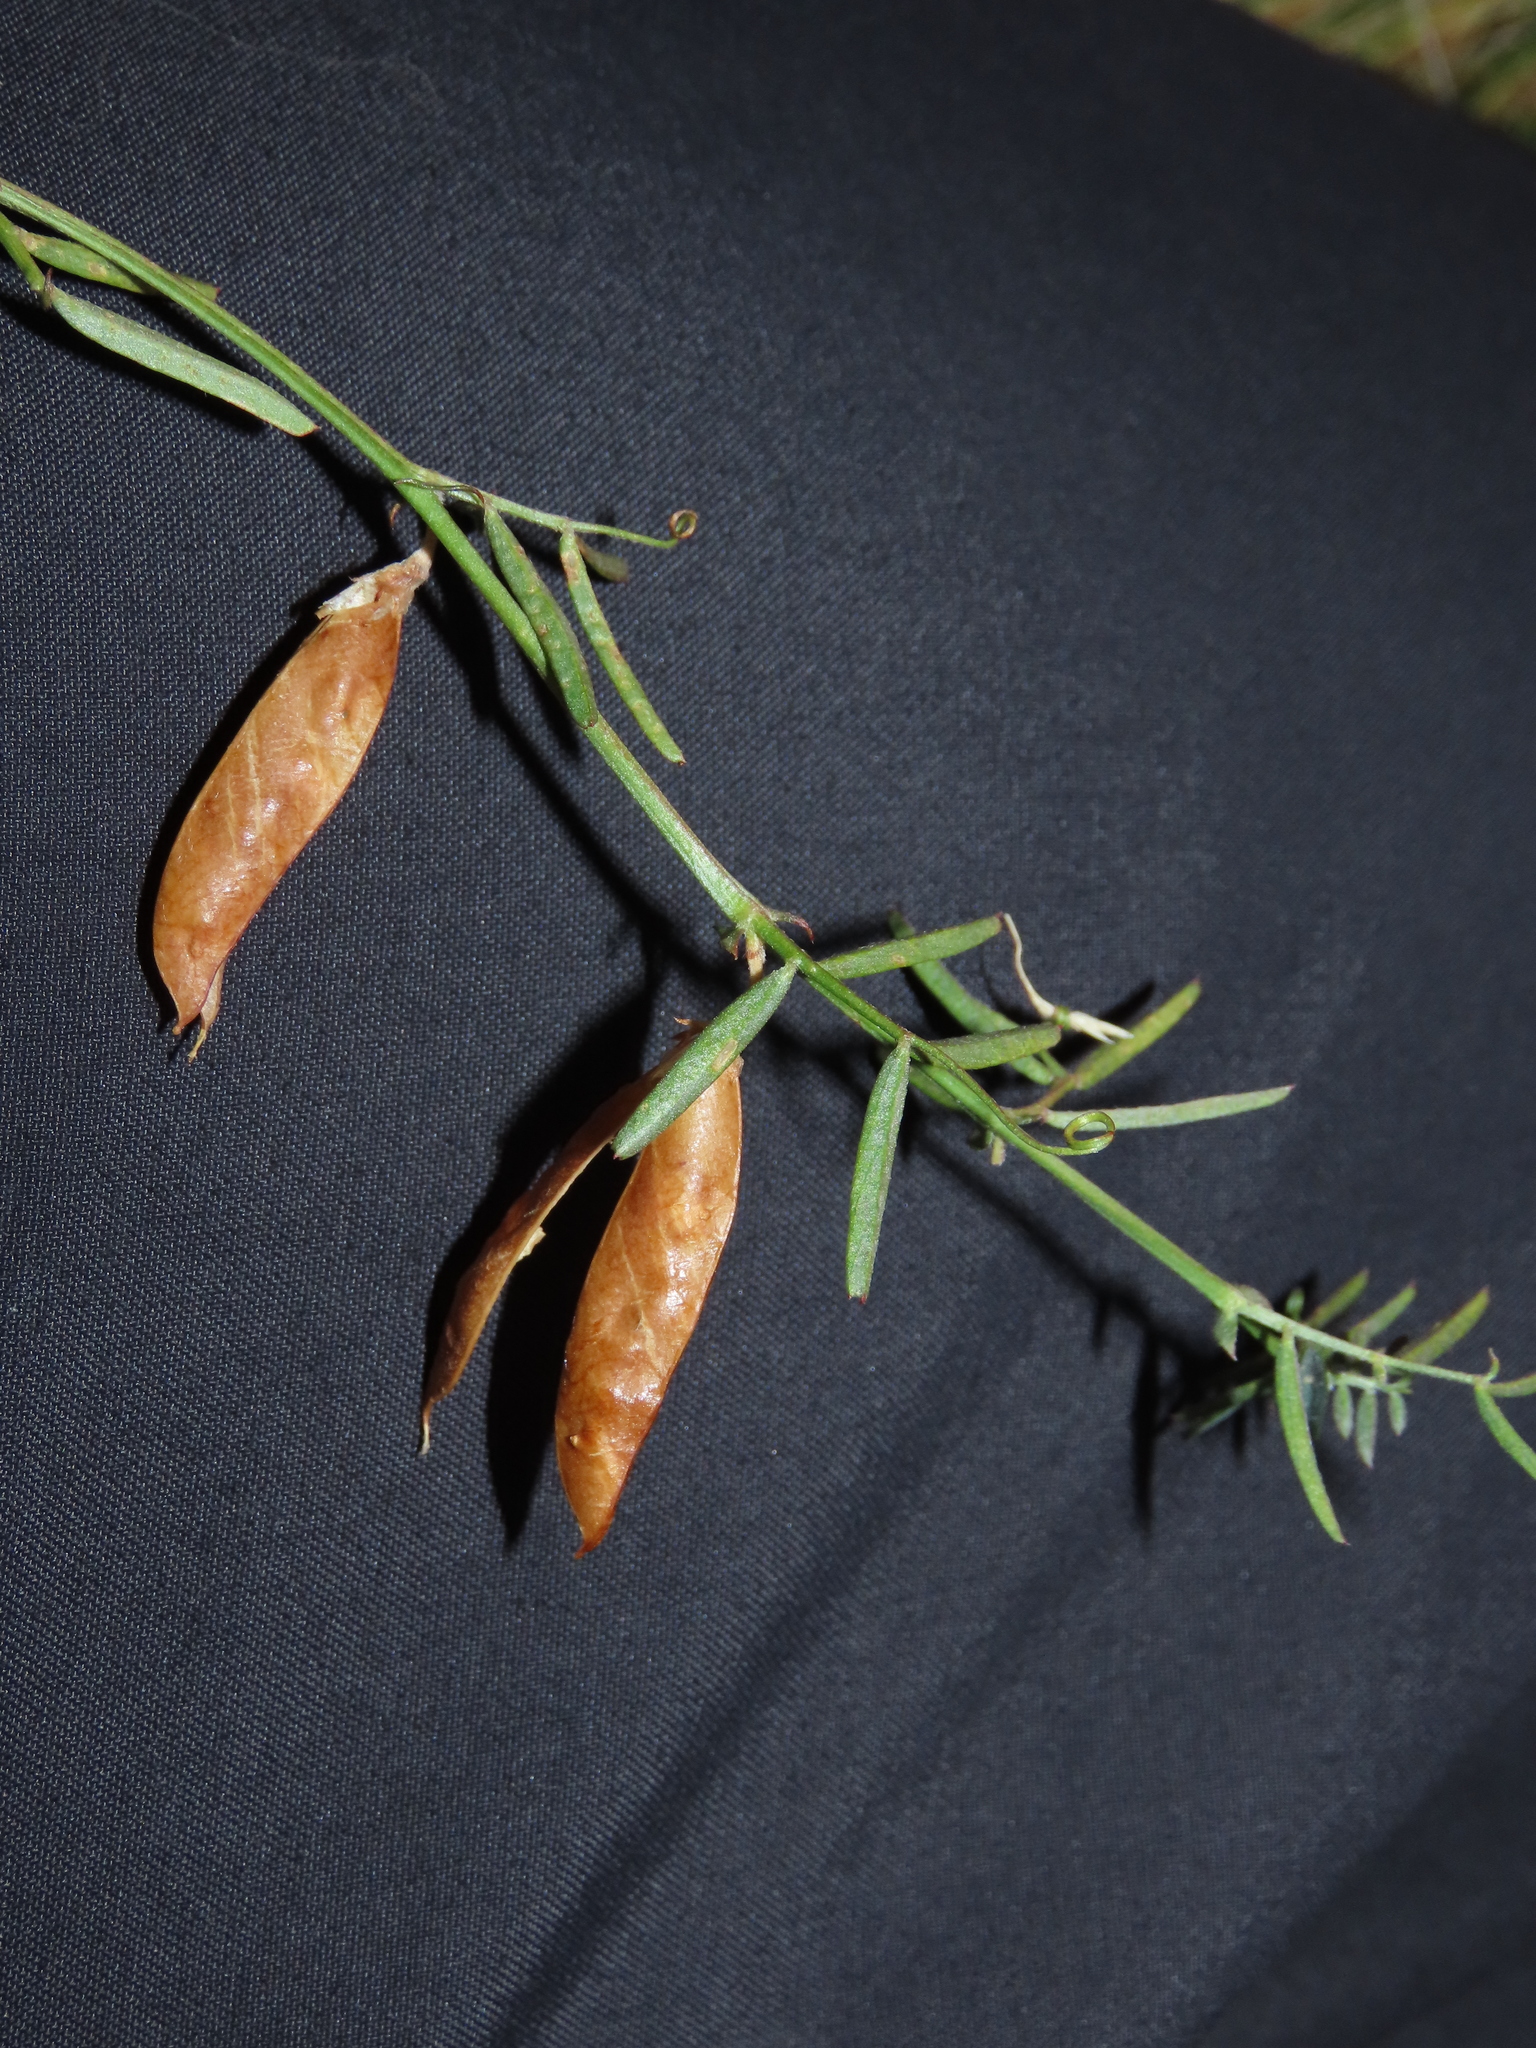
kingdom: Plantae
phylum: Tracheophyta
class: Magnoliopsida
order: Fabales
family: Fabaceae
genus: Vicia
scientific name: Vicia bijuga
